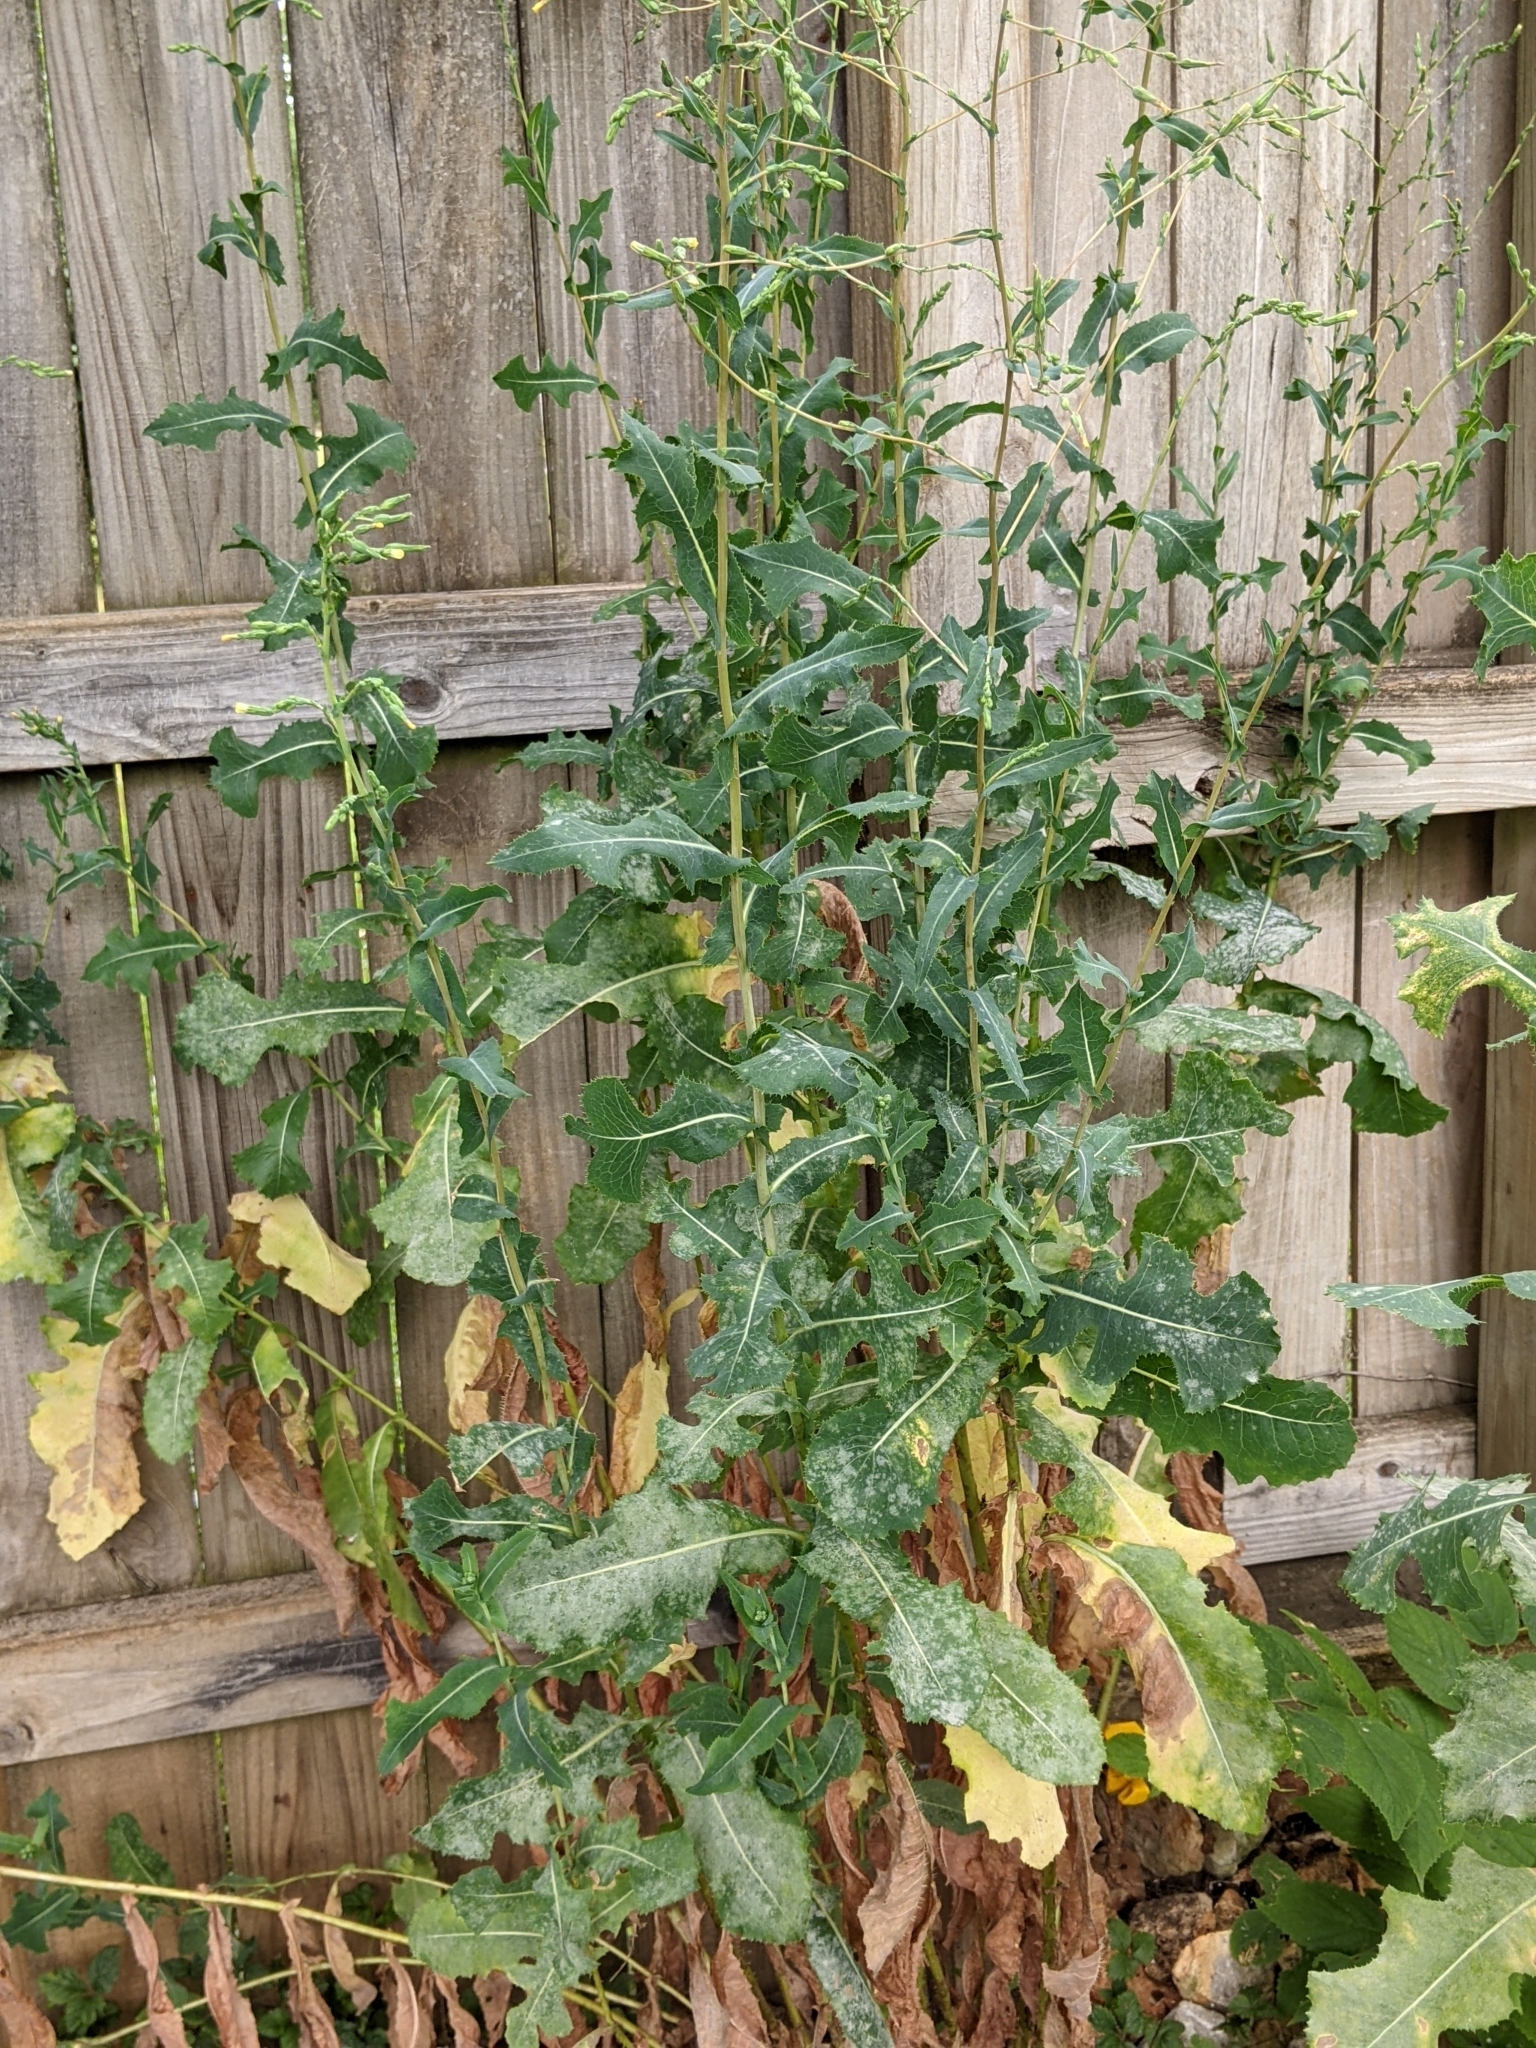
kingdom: Plantae
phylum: Tracheophyta
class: Magnoliopsida
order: Asterales
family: Asteraceae
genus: Lactuca
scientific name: Lactuca serriola
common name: Prickly lettuce
